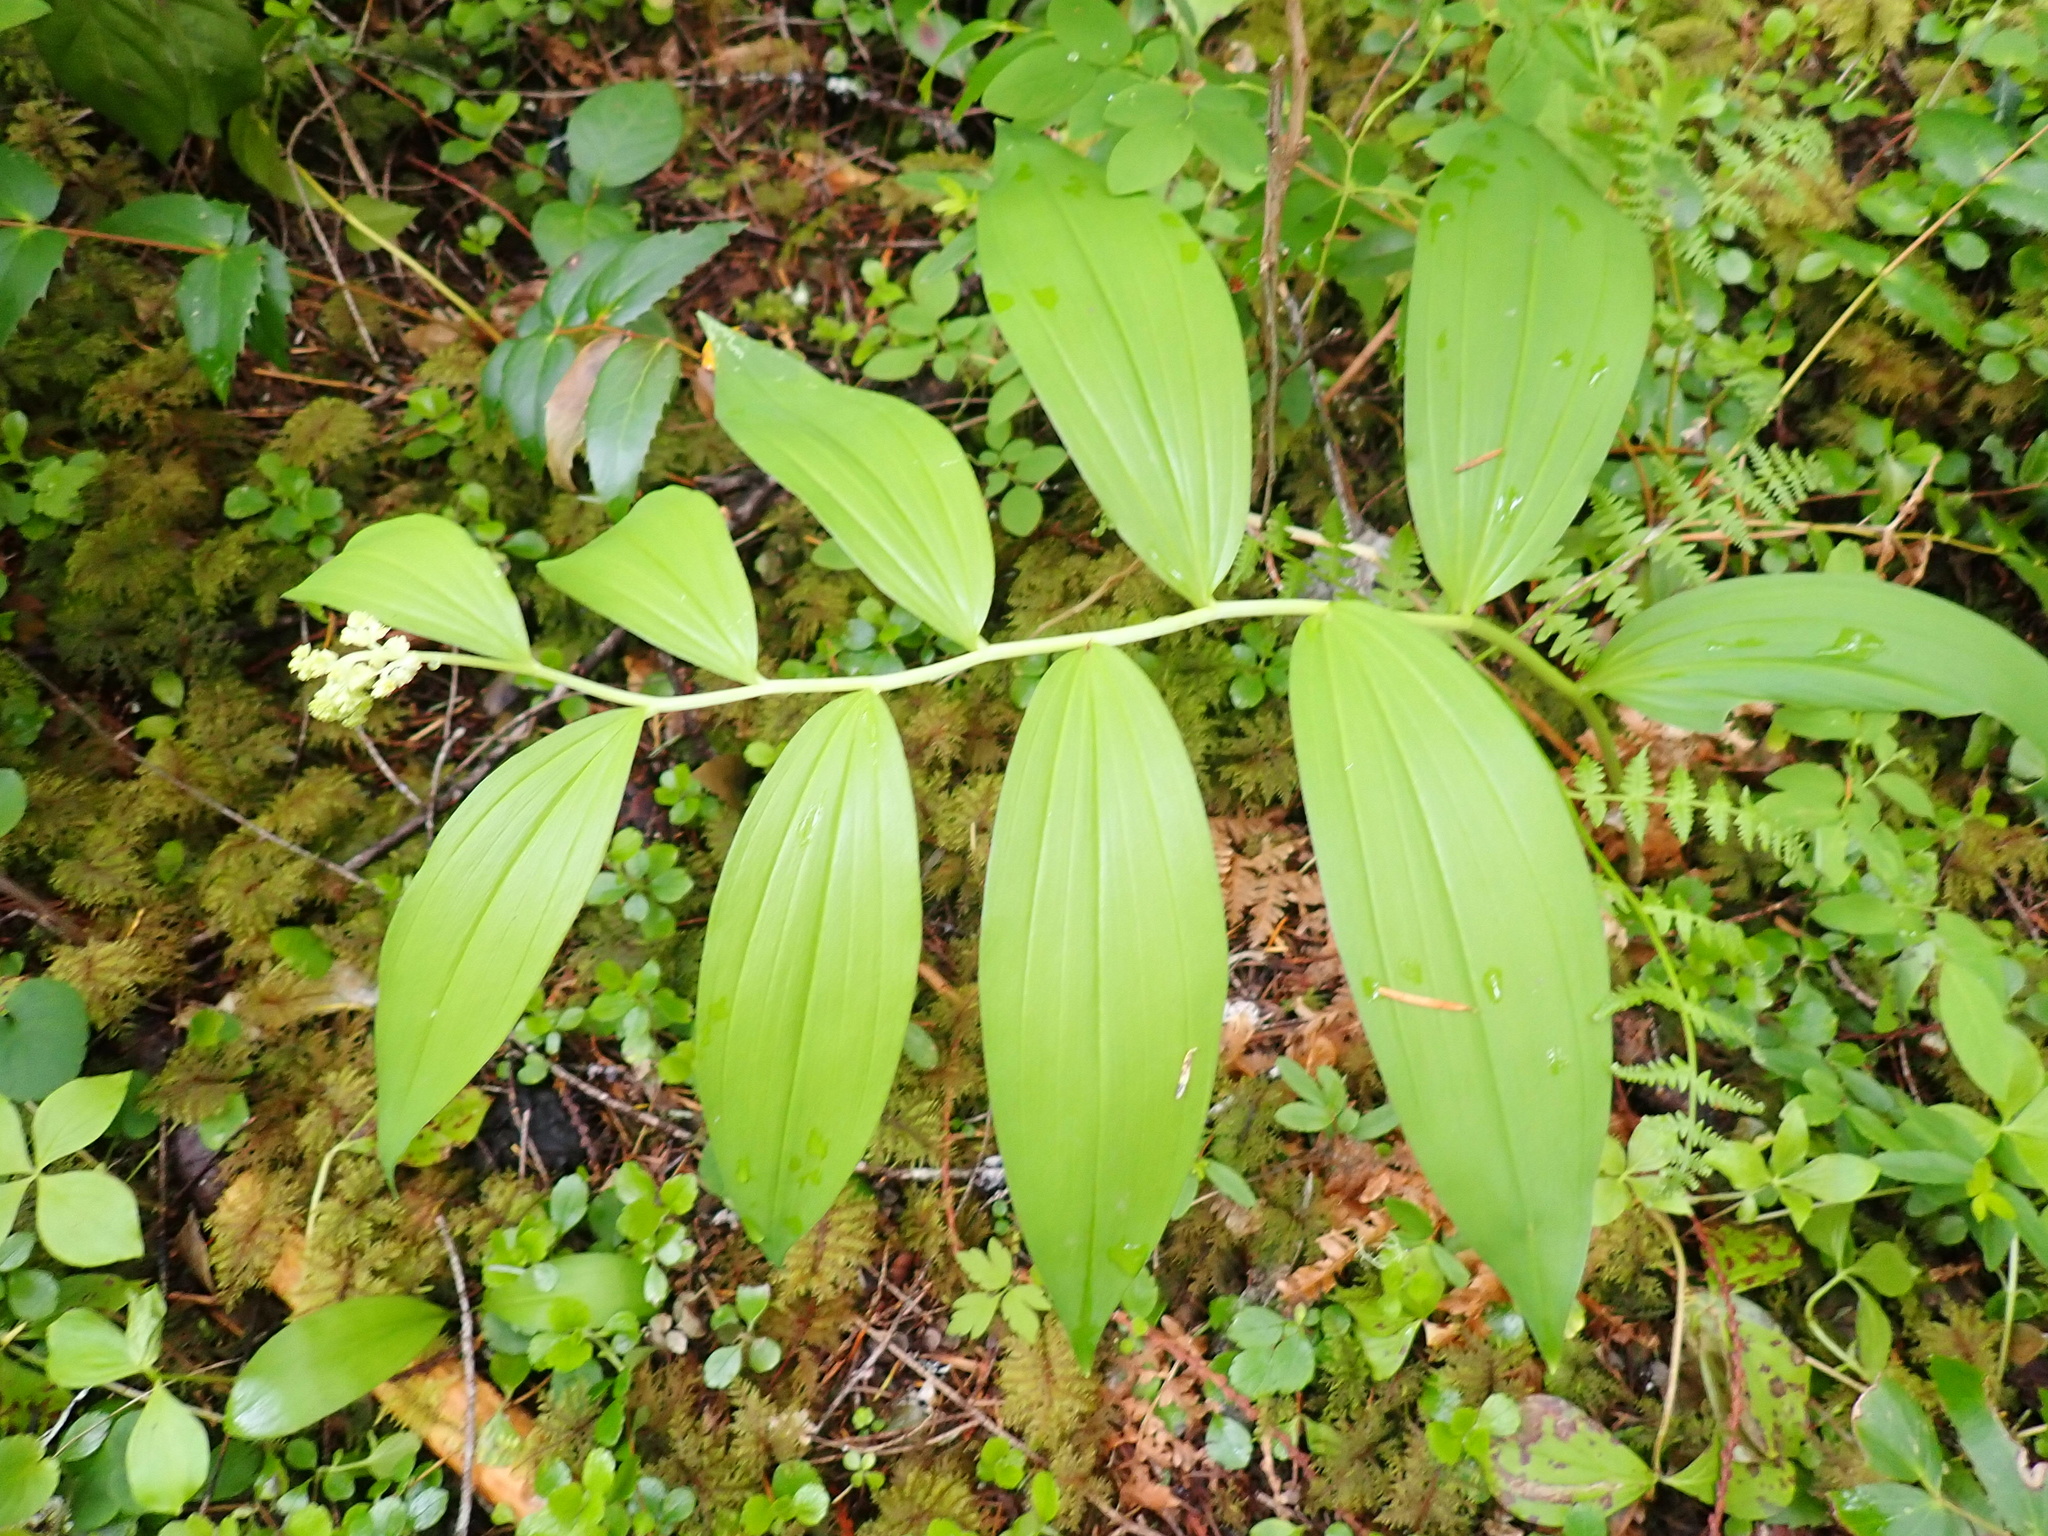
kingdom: Plantae
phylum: Tracheophyta
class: Liliopsida
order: Asparagales
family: Asparagaceae
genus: Maianthemum
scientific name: Maianthemum racemosum
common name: False spikenard
